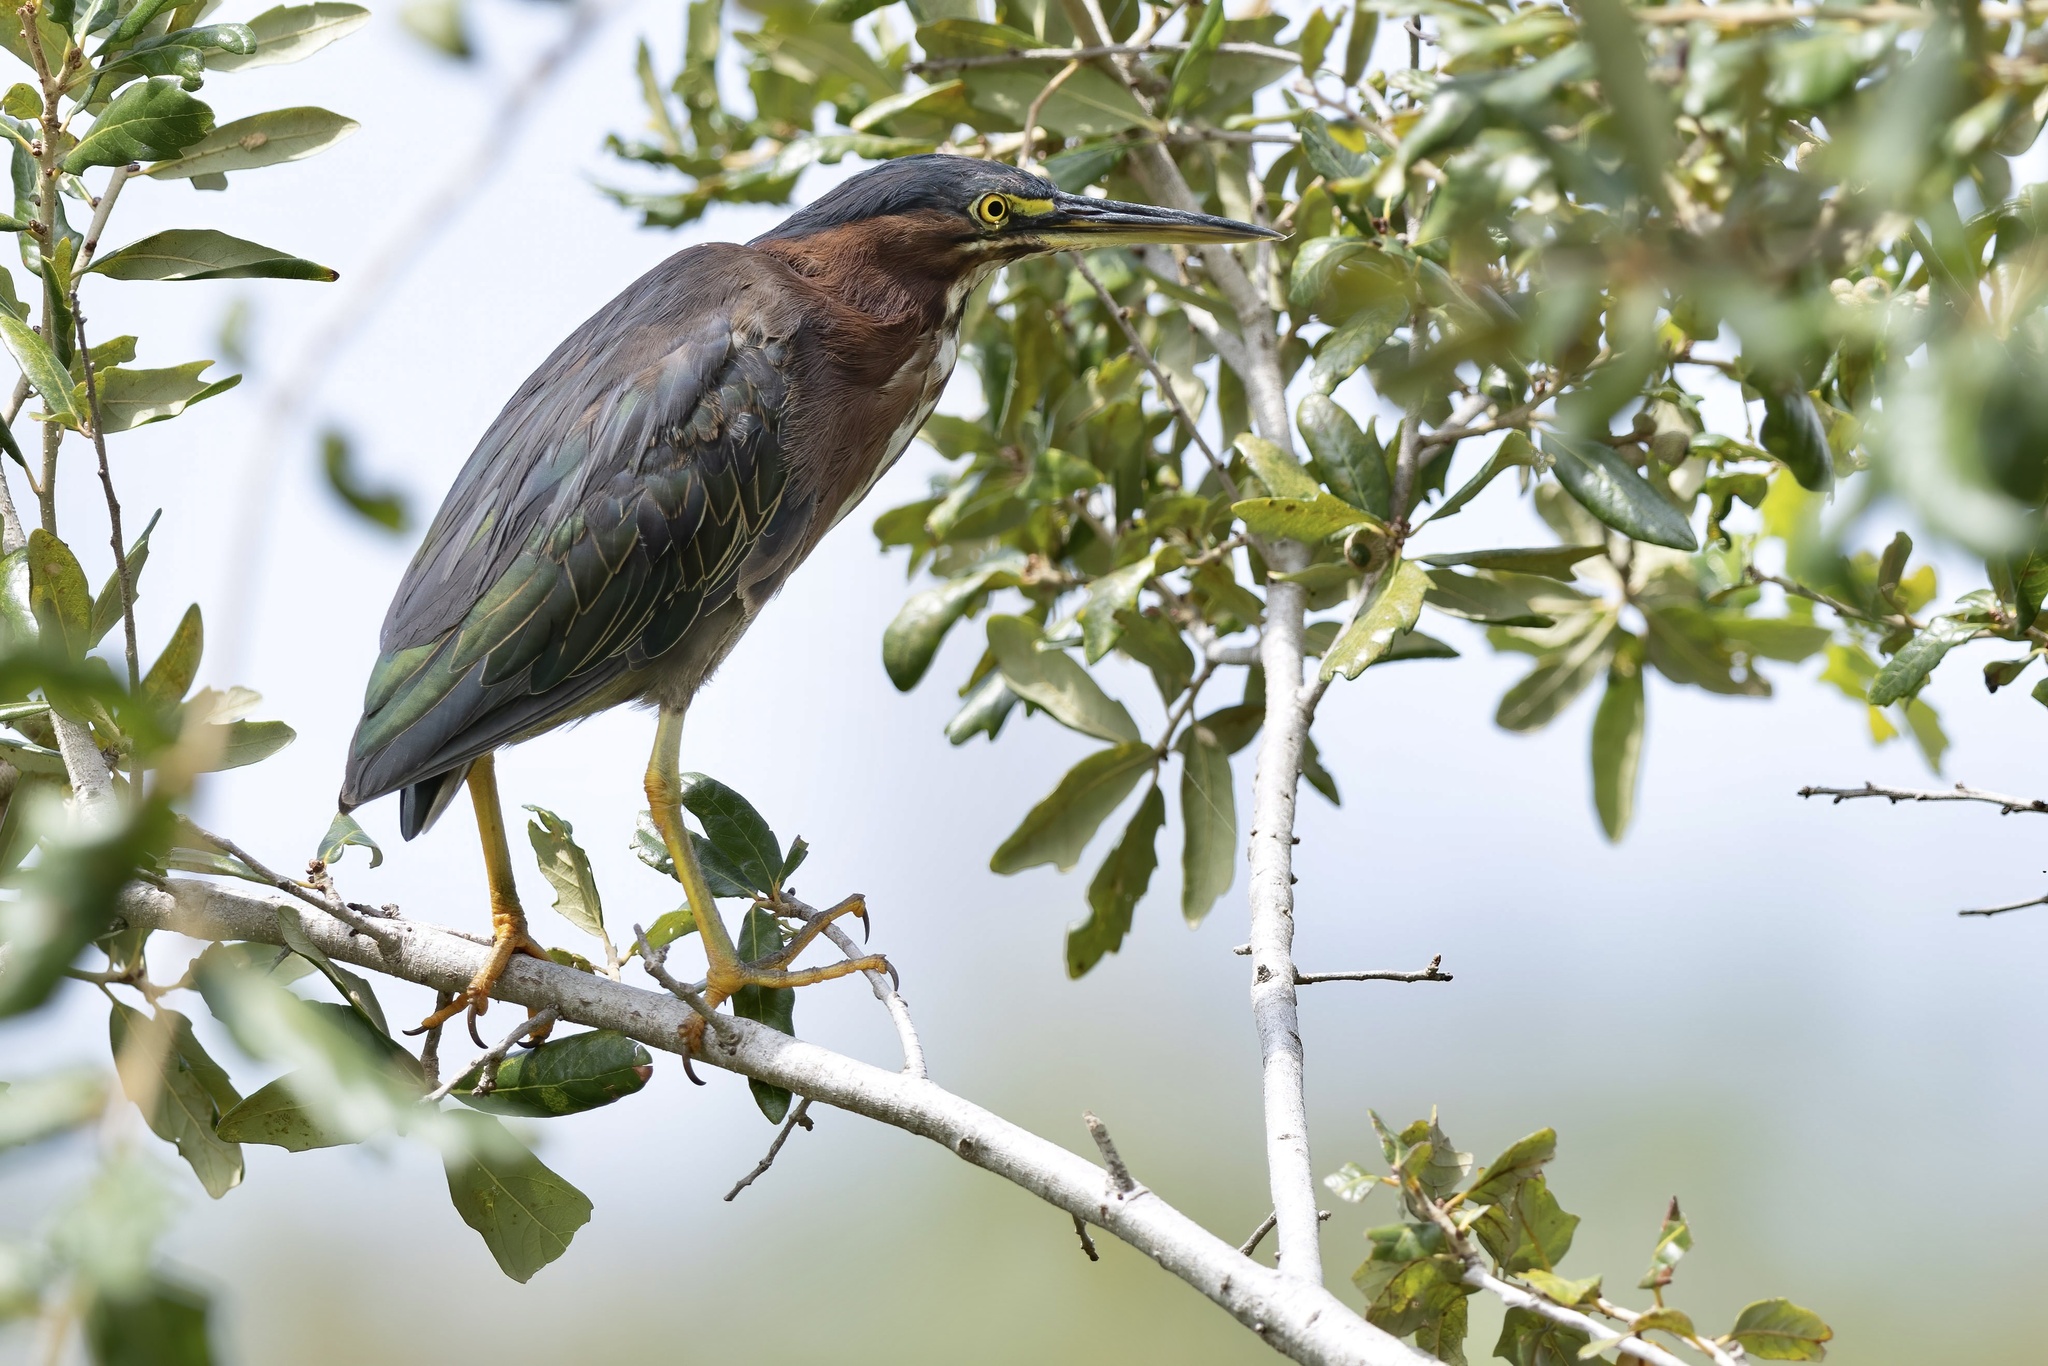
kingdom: Animalia
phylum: Chordata
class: Aves
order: Pelecaniformes
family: Ardeidae
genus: Butorides
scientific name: Butorides virescens
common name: Green heron
